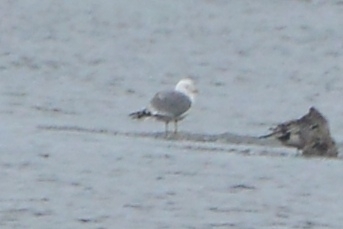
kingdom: Animalia
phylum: Chordata
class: Aves
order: Charadriiformes
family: Laridae
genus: Larus
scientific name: Larus canus
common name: Mew gull
